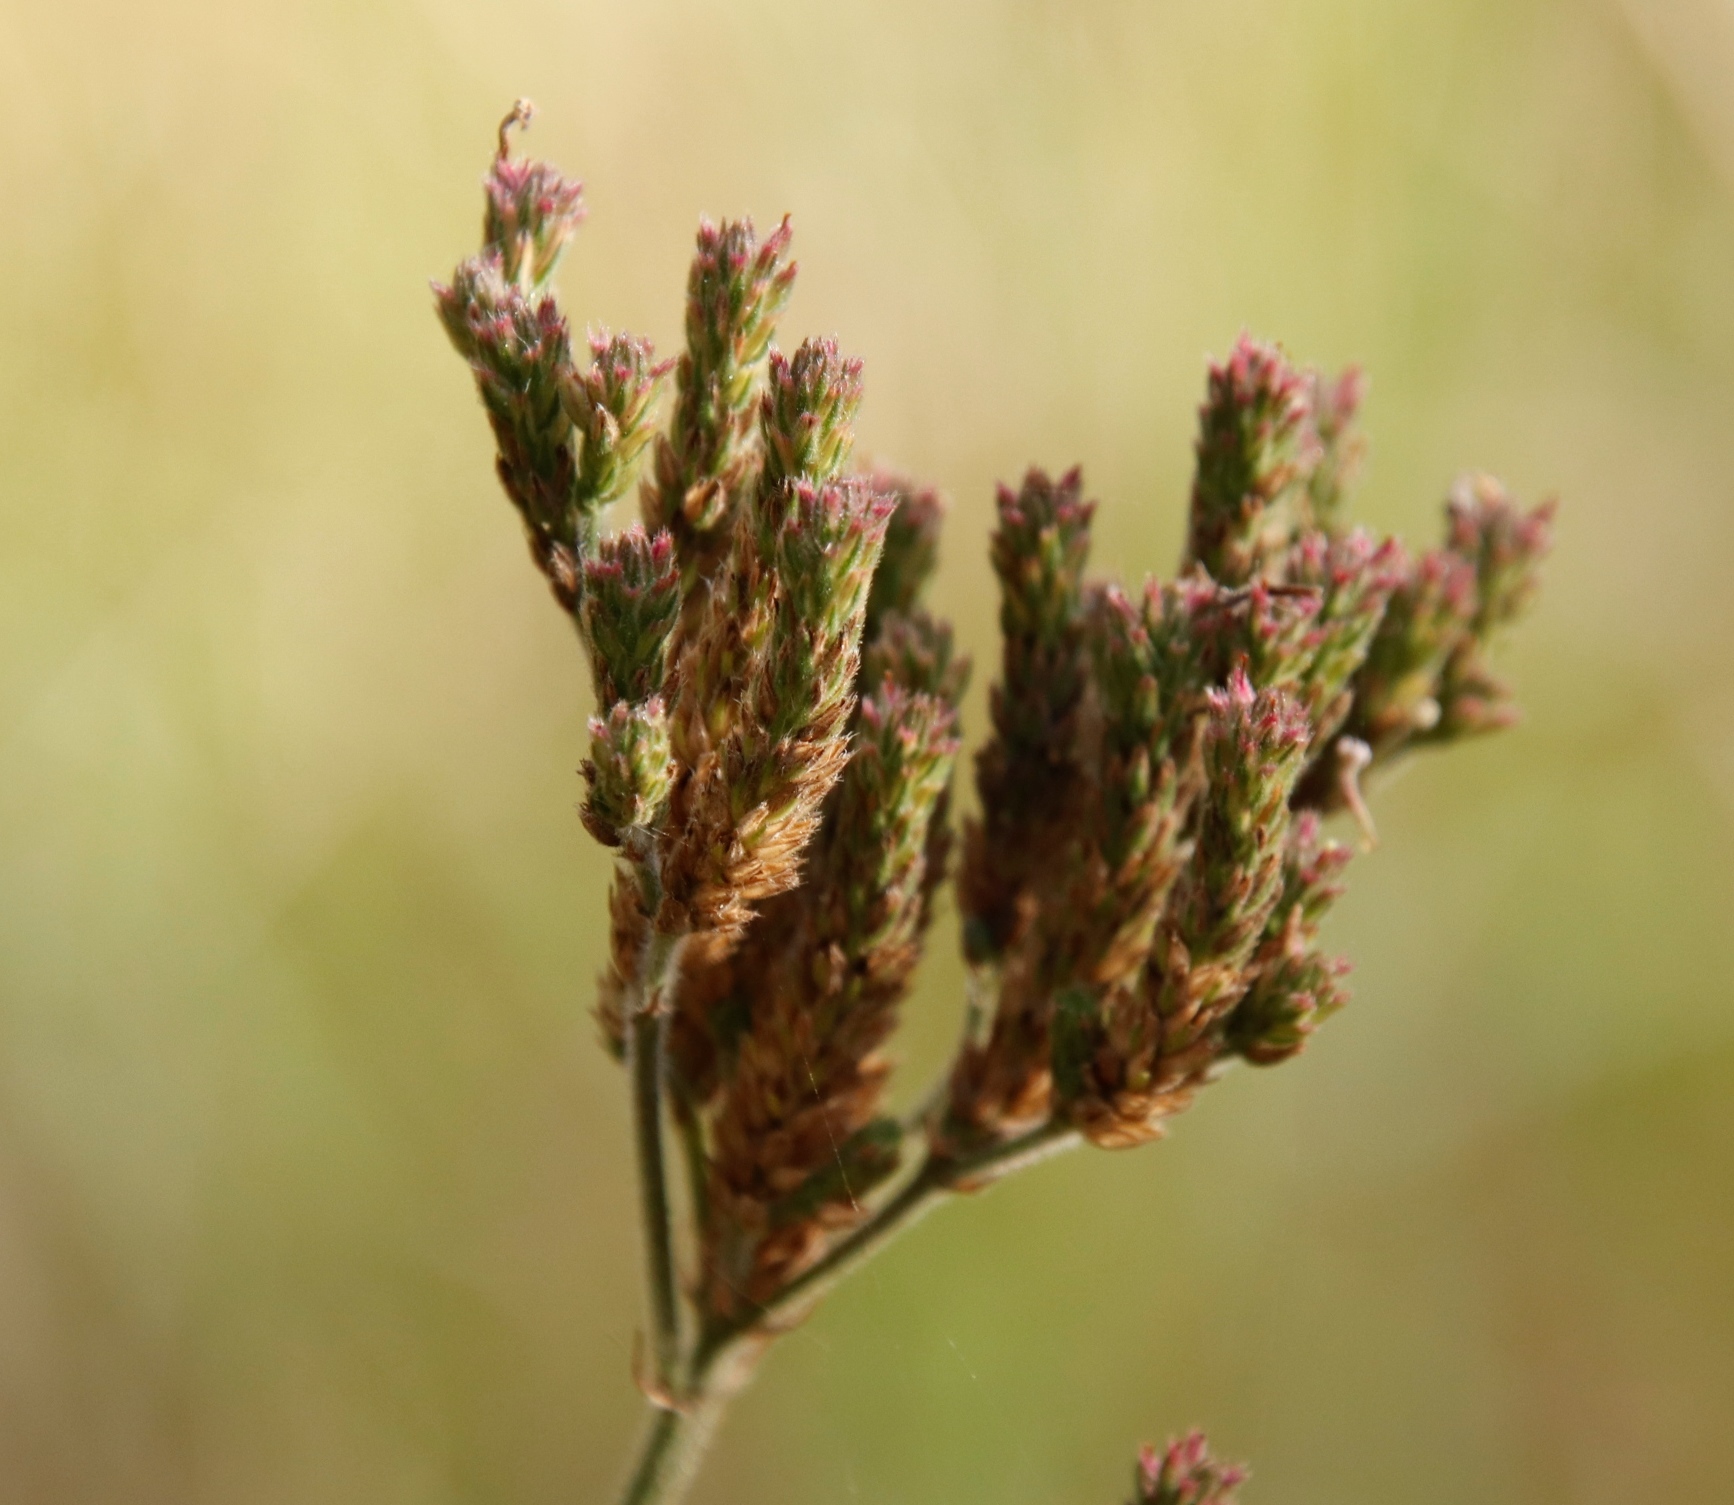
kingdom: Plantae
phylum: Tracheophyta
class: Magnoliopsida
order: Lamiales
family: Verbenaceae
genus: Verbena
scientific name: Verbena bonariensis
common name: Purpletop vervain
